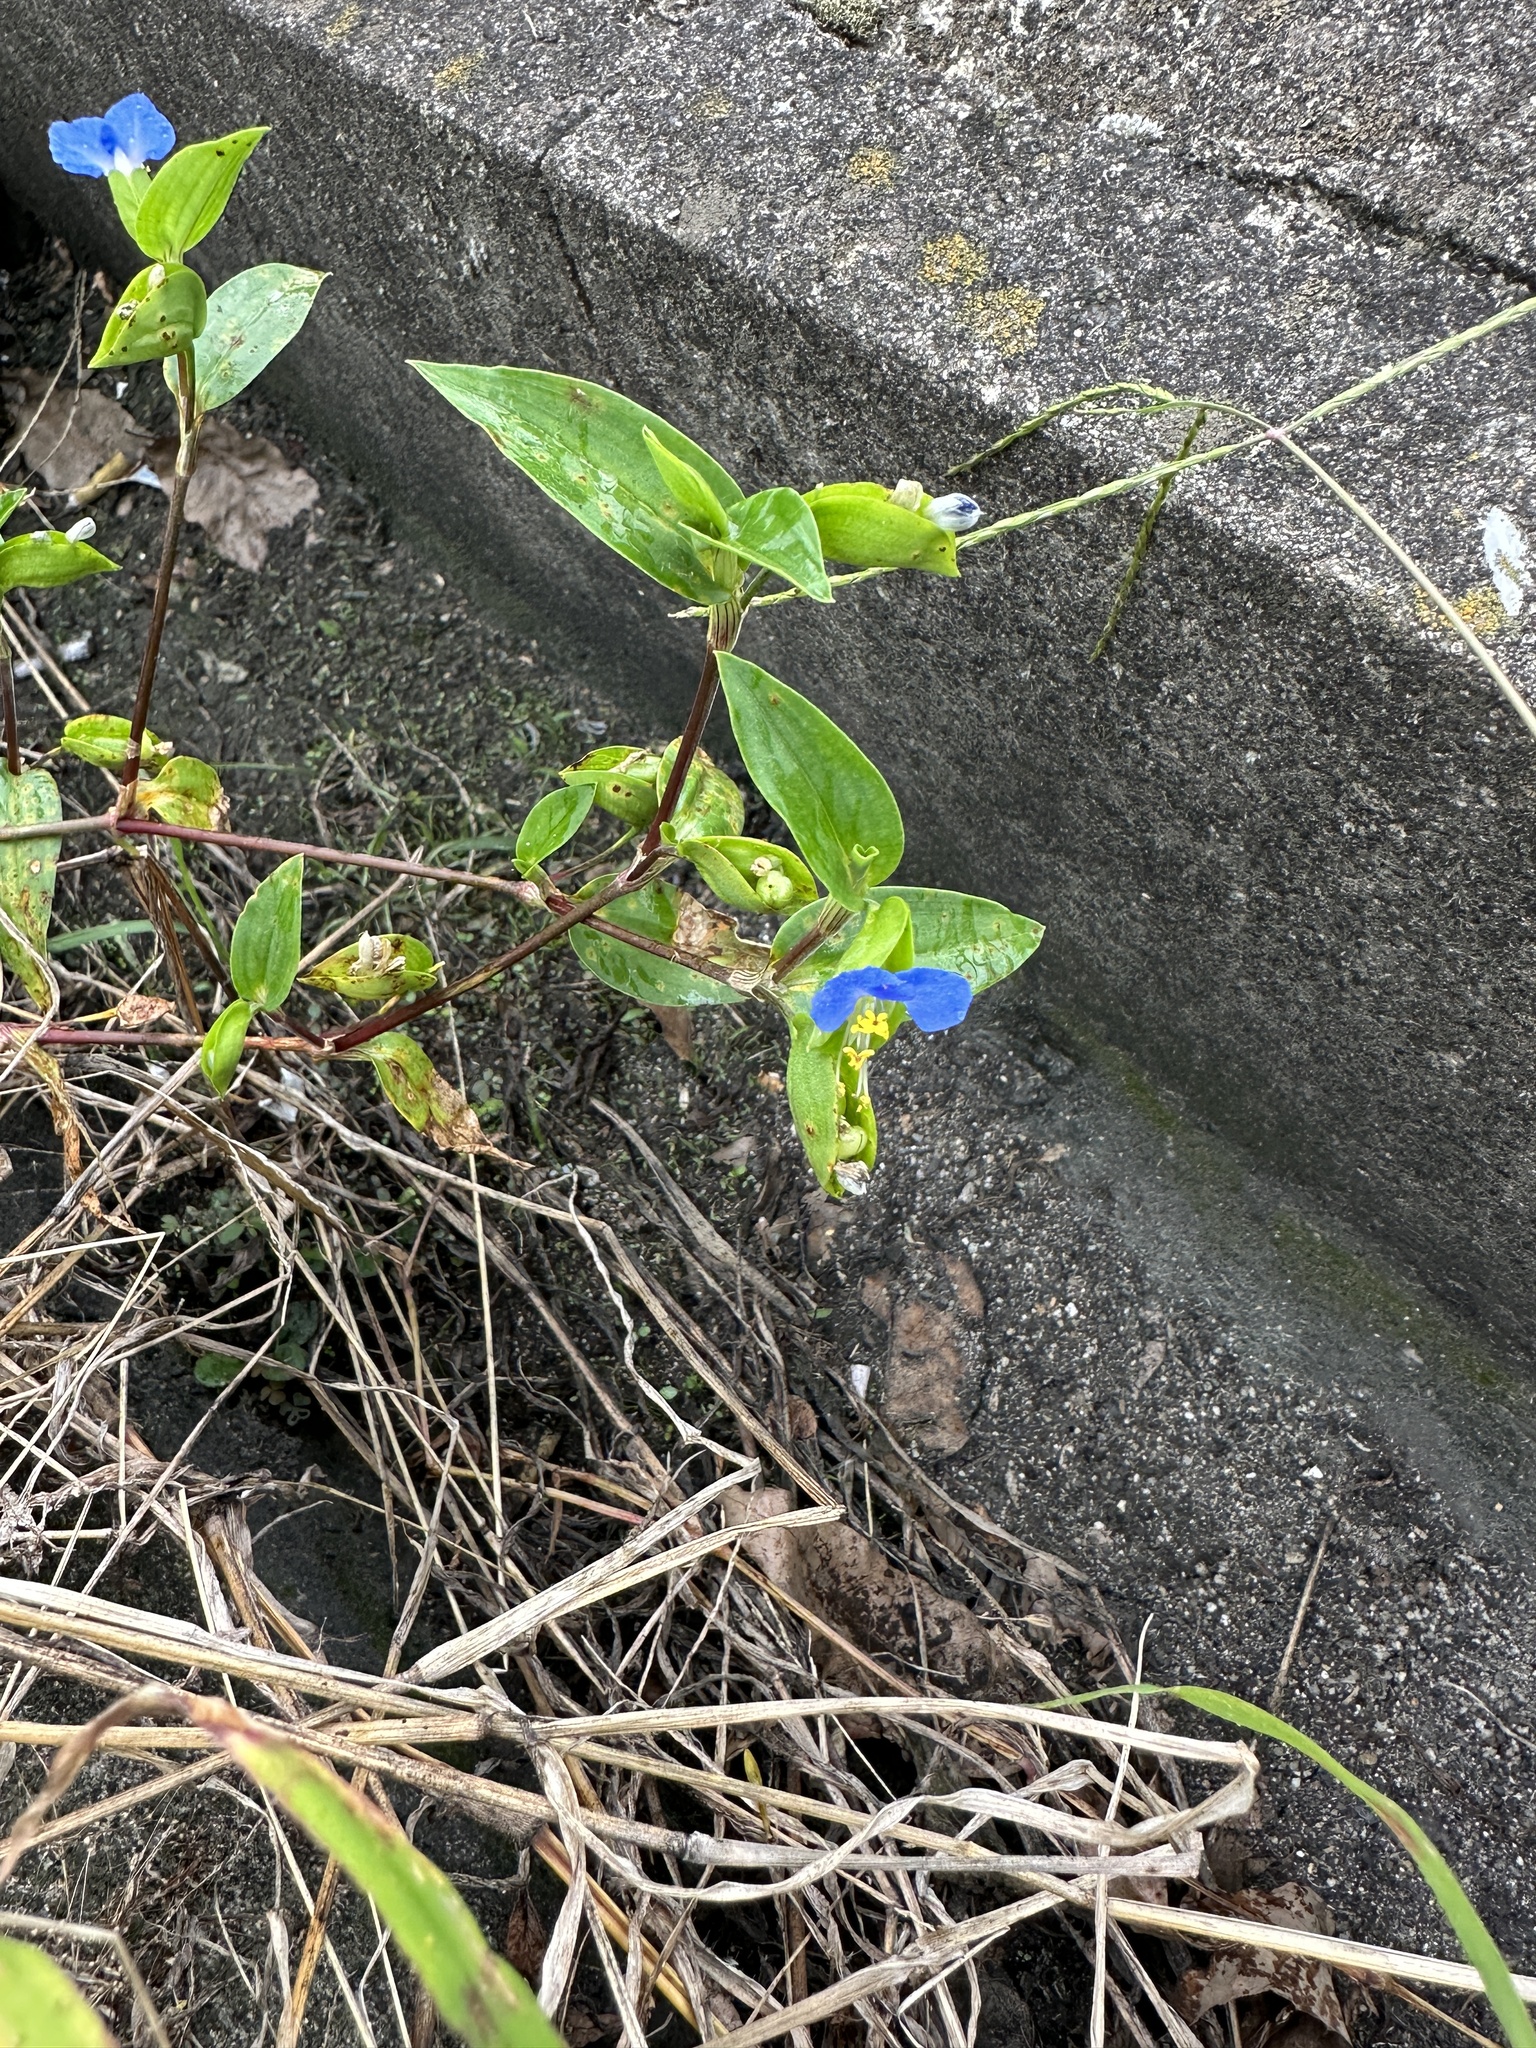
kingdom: Plantae
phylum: Tracheophyta
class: Liliopsida
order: Commelinales
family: Commelinaceae
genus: Commelina
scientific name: Commelina communis
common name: Asiatic dayflower
